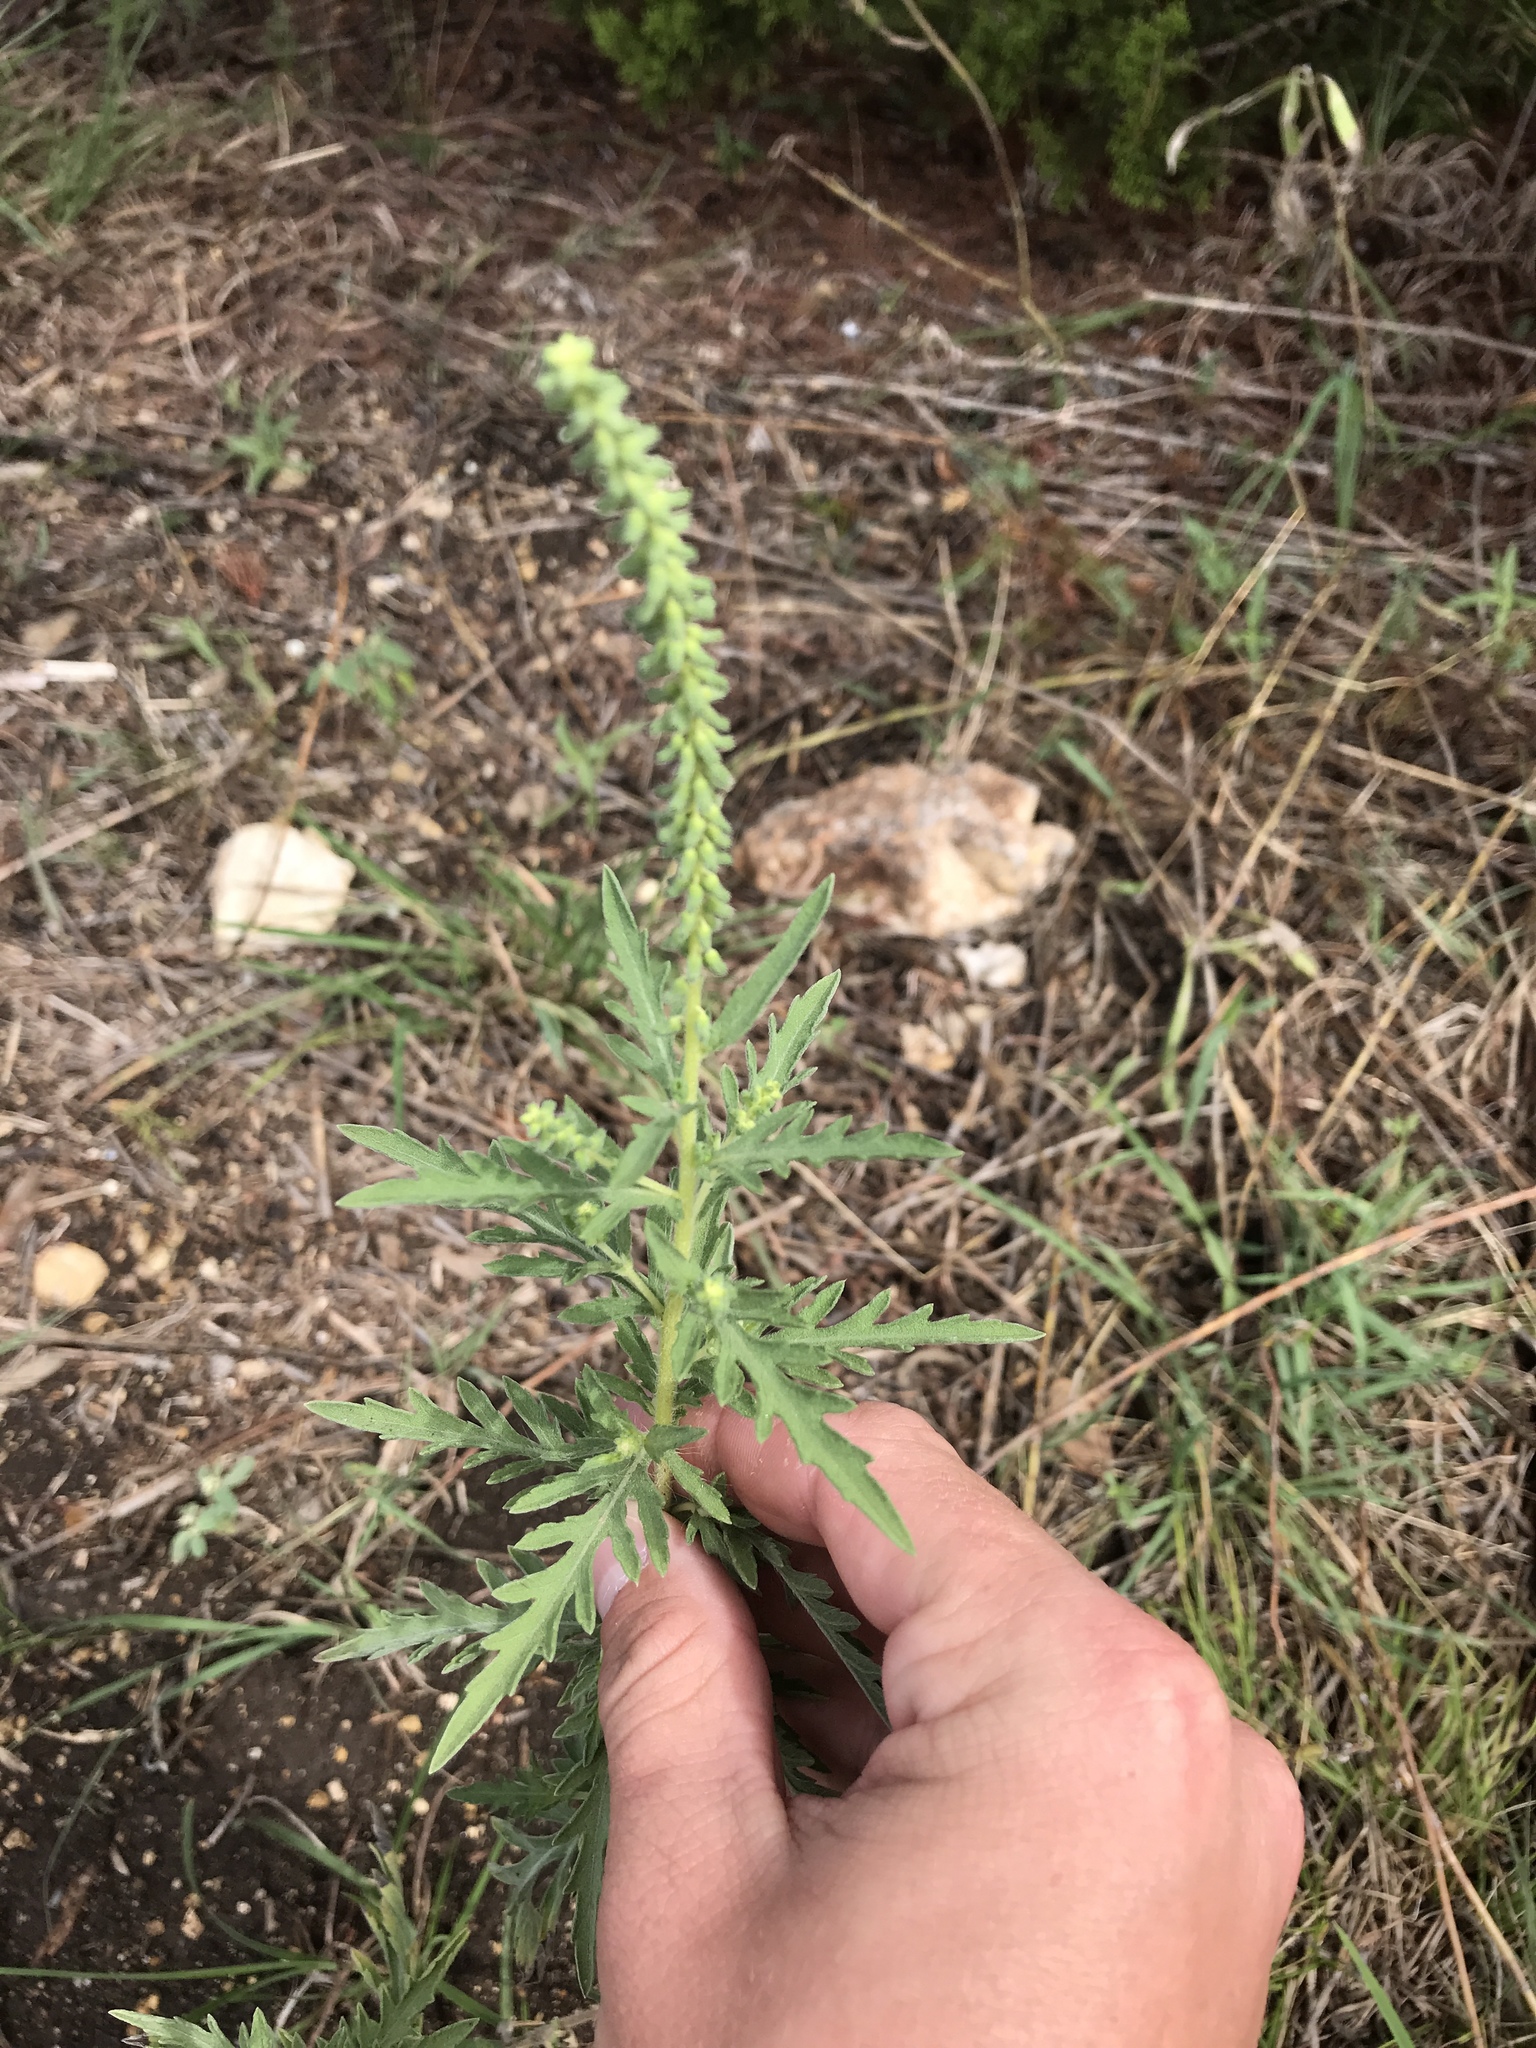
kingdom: Plantae
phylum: Tracheophyta
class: Magnoliopsida
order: Asterales
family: Asteraceae
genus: Ambrosia
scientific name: Ambrosia psilostachya
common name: Perennial ragweed
